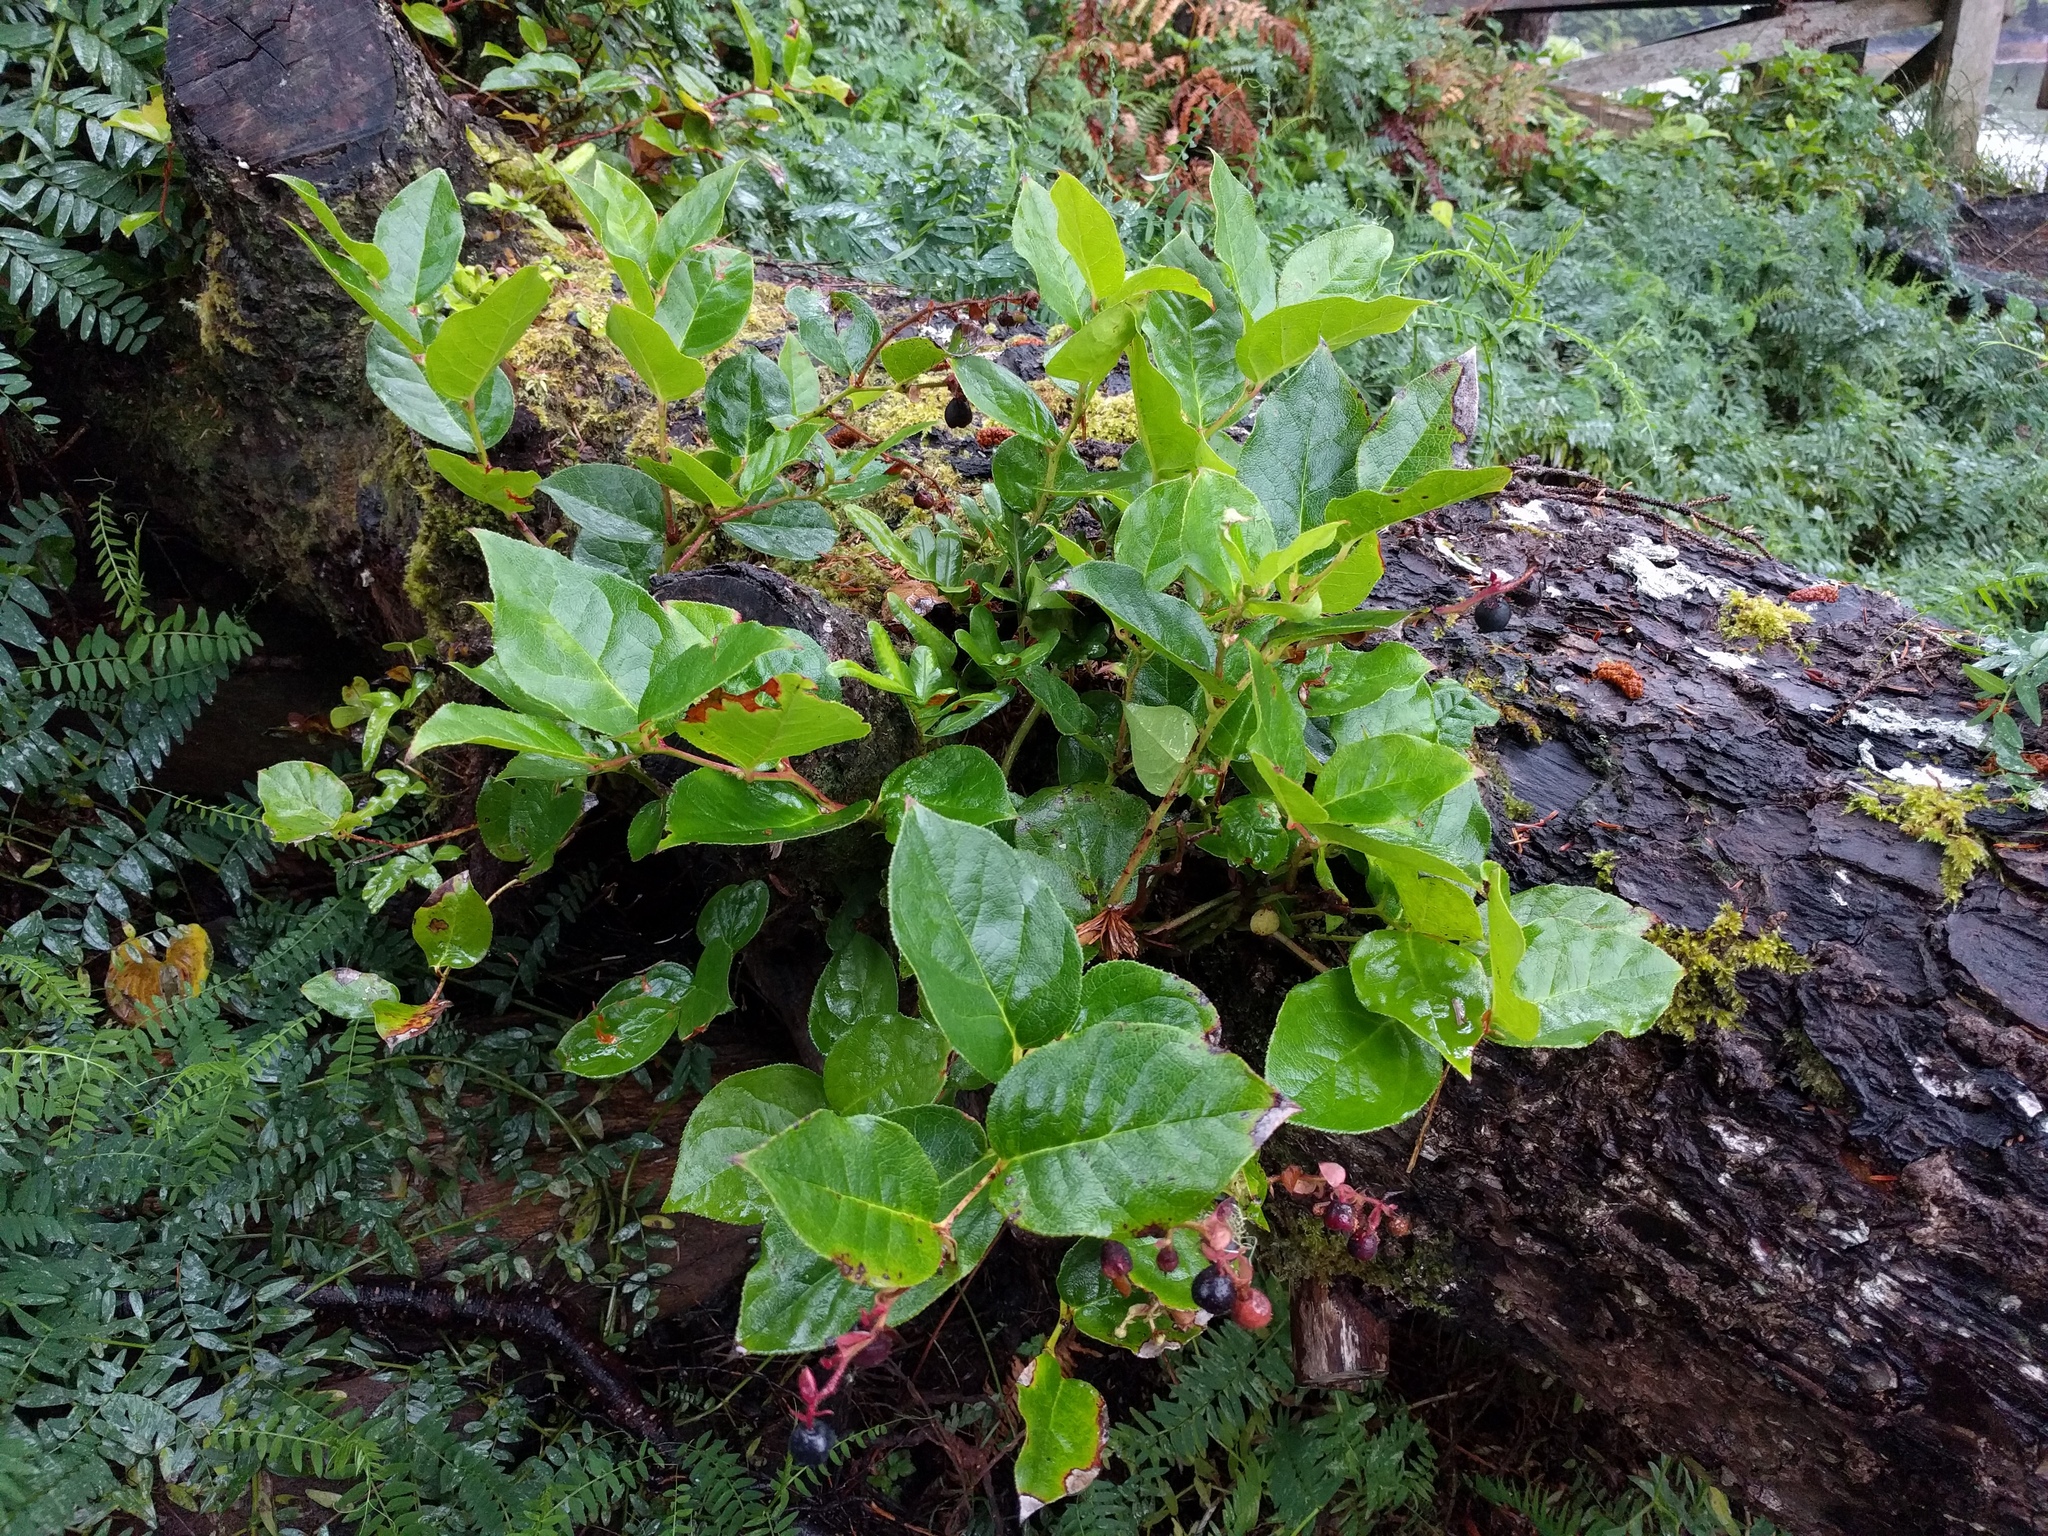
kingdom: Plantae
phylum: Tracheophyta
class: Magnoliopsida
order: Ericales
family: Ericaceae
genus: Gaultheria
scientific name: Gaultheria shallon
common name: Shallon
